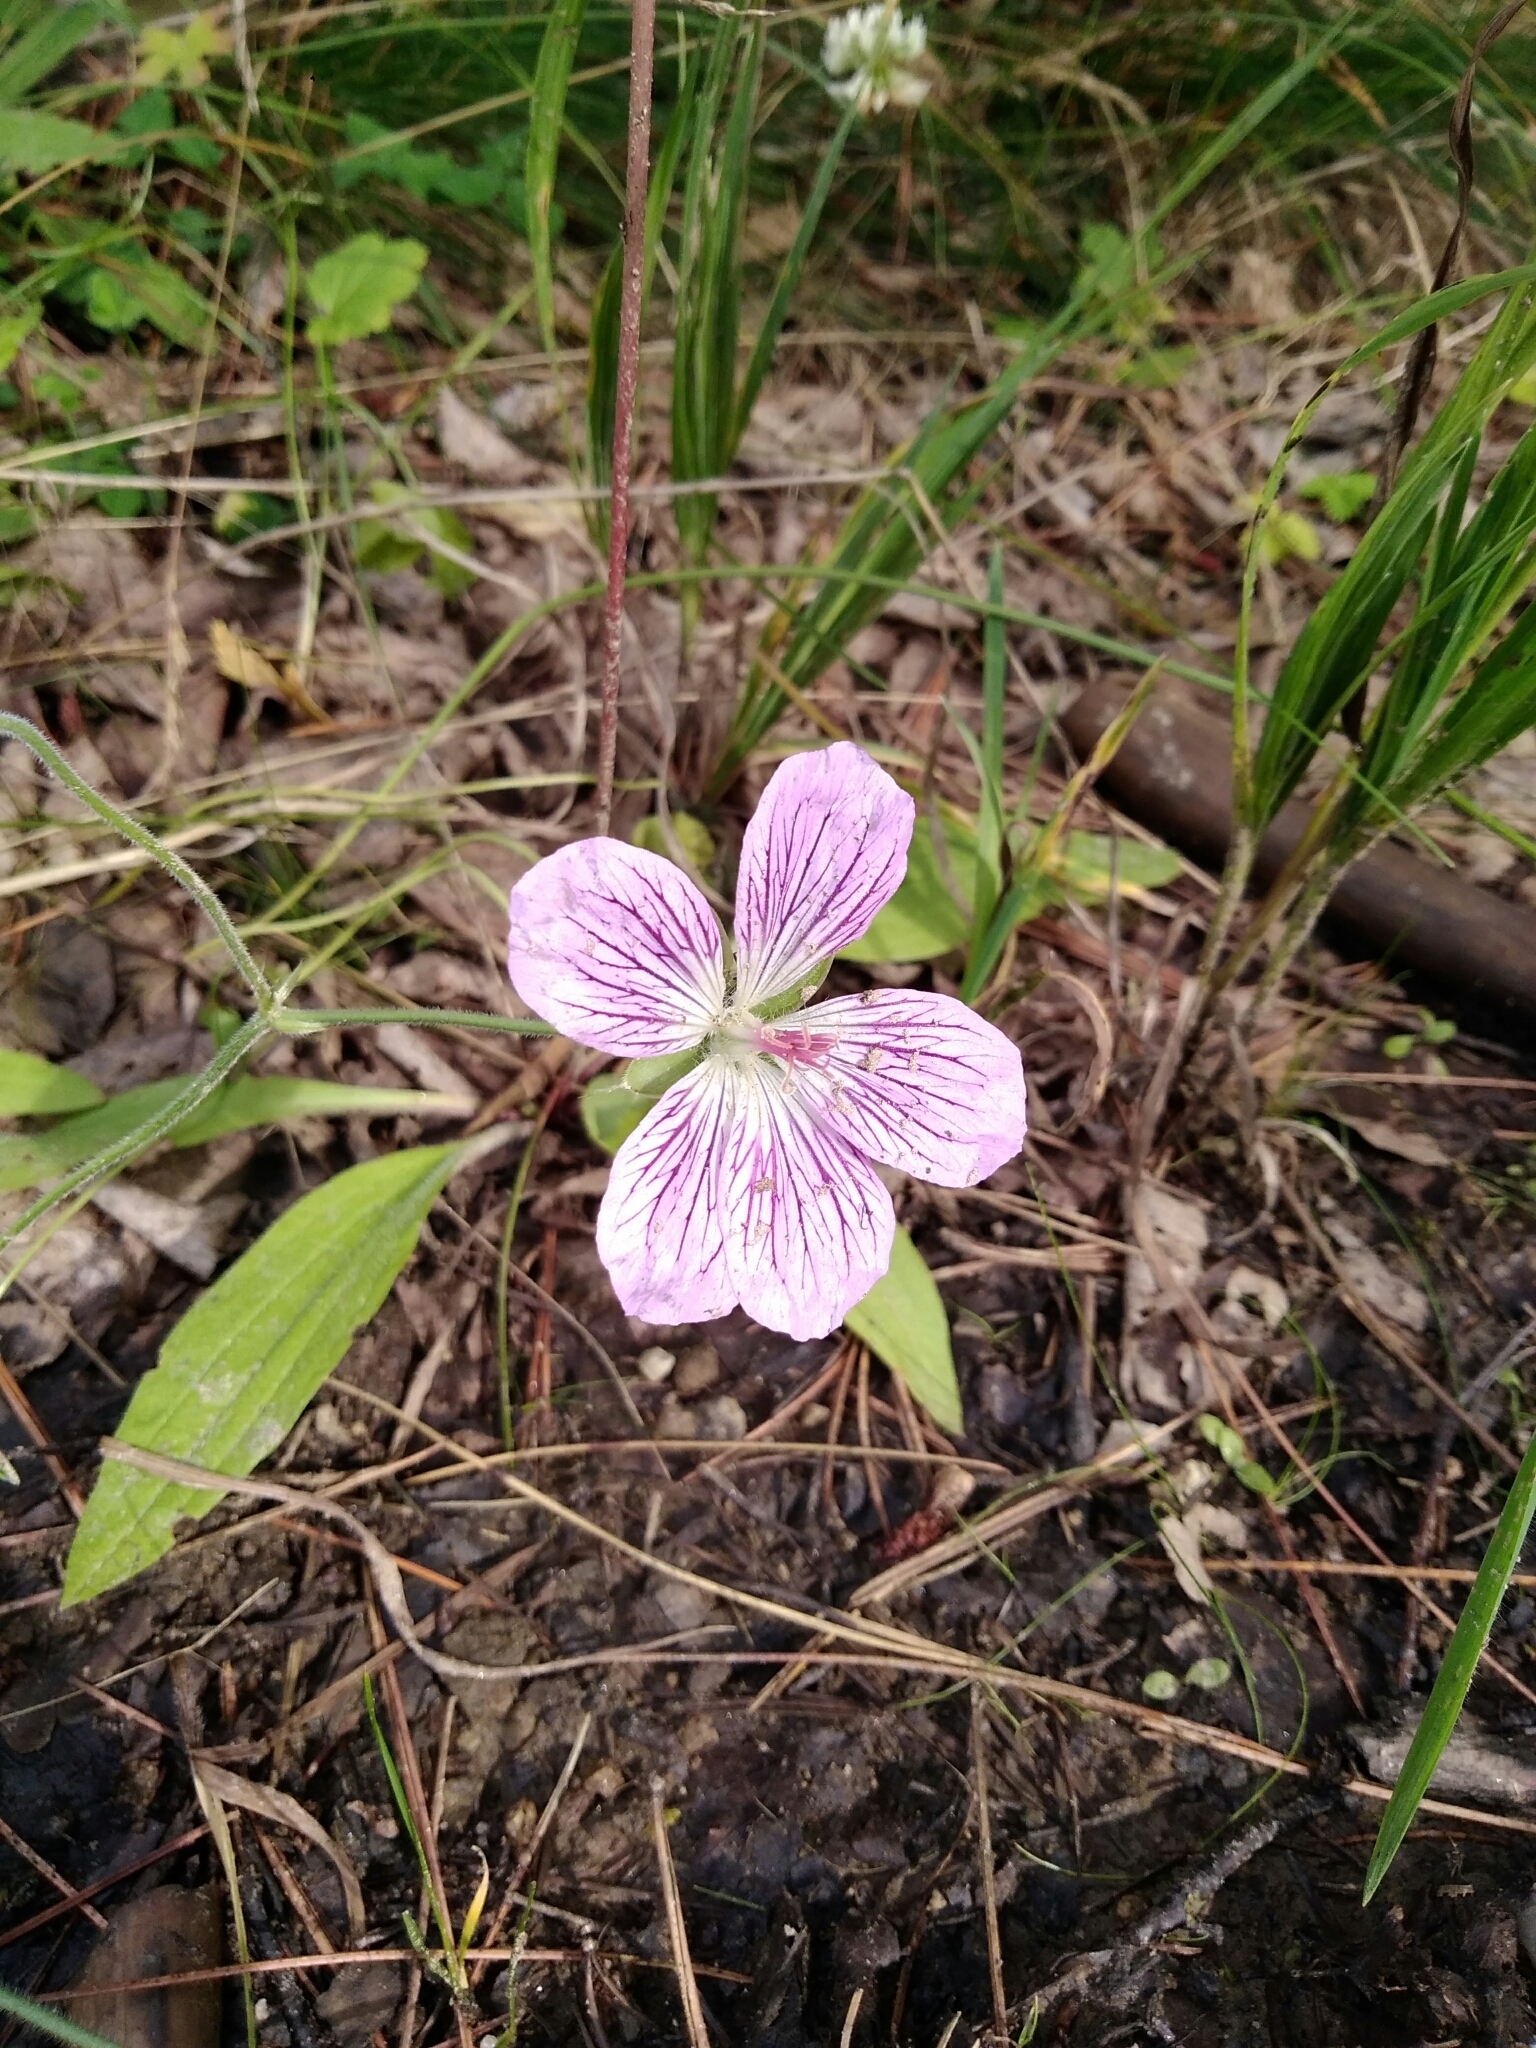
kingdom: Plantae
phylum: Tracheophyta
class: Magnoliopsida
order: Geraniales
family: Geraniaceae
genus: Geranium
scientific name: Geranium wlassovianum
